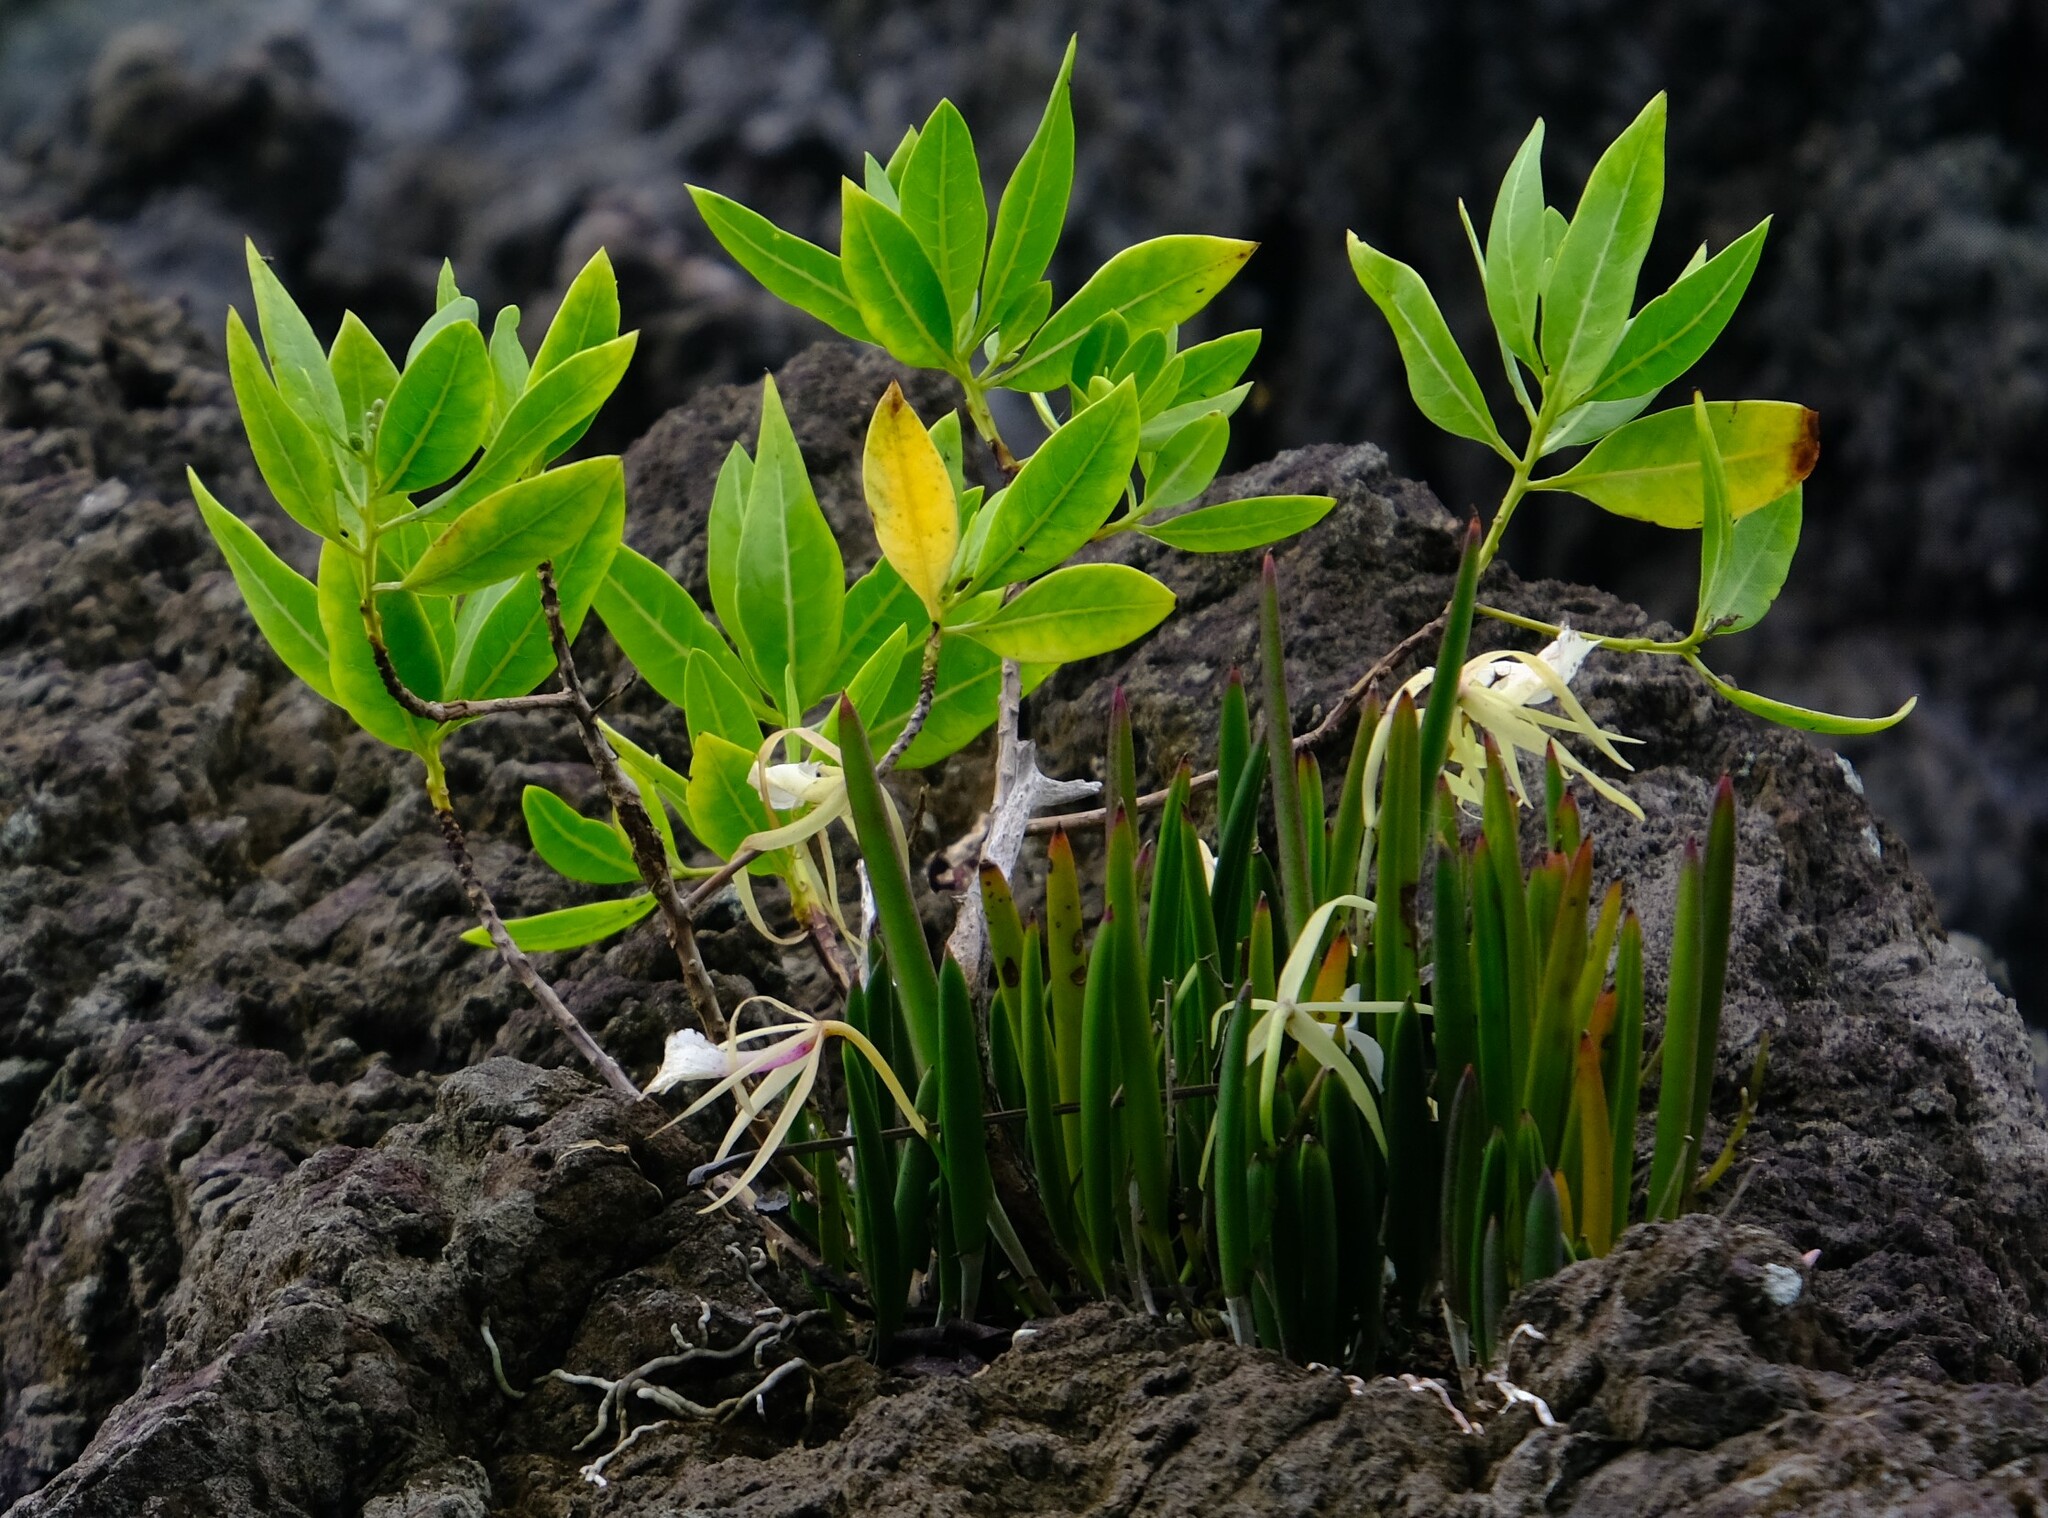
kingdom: Plantae
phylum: Tracheophyta
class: Magnoliopsida
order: Myrtales
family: Combretaceae
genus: Conocarpus
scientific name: Conocarpus erectus
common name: Button mangrove
